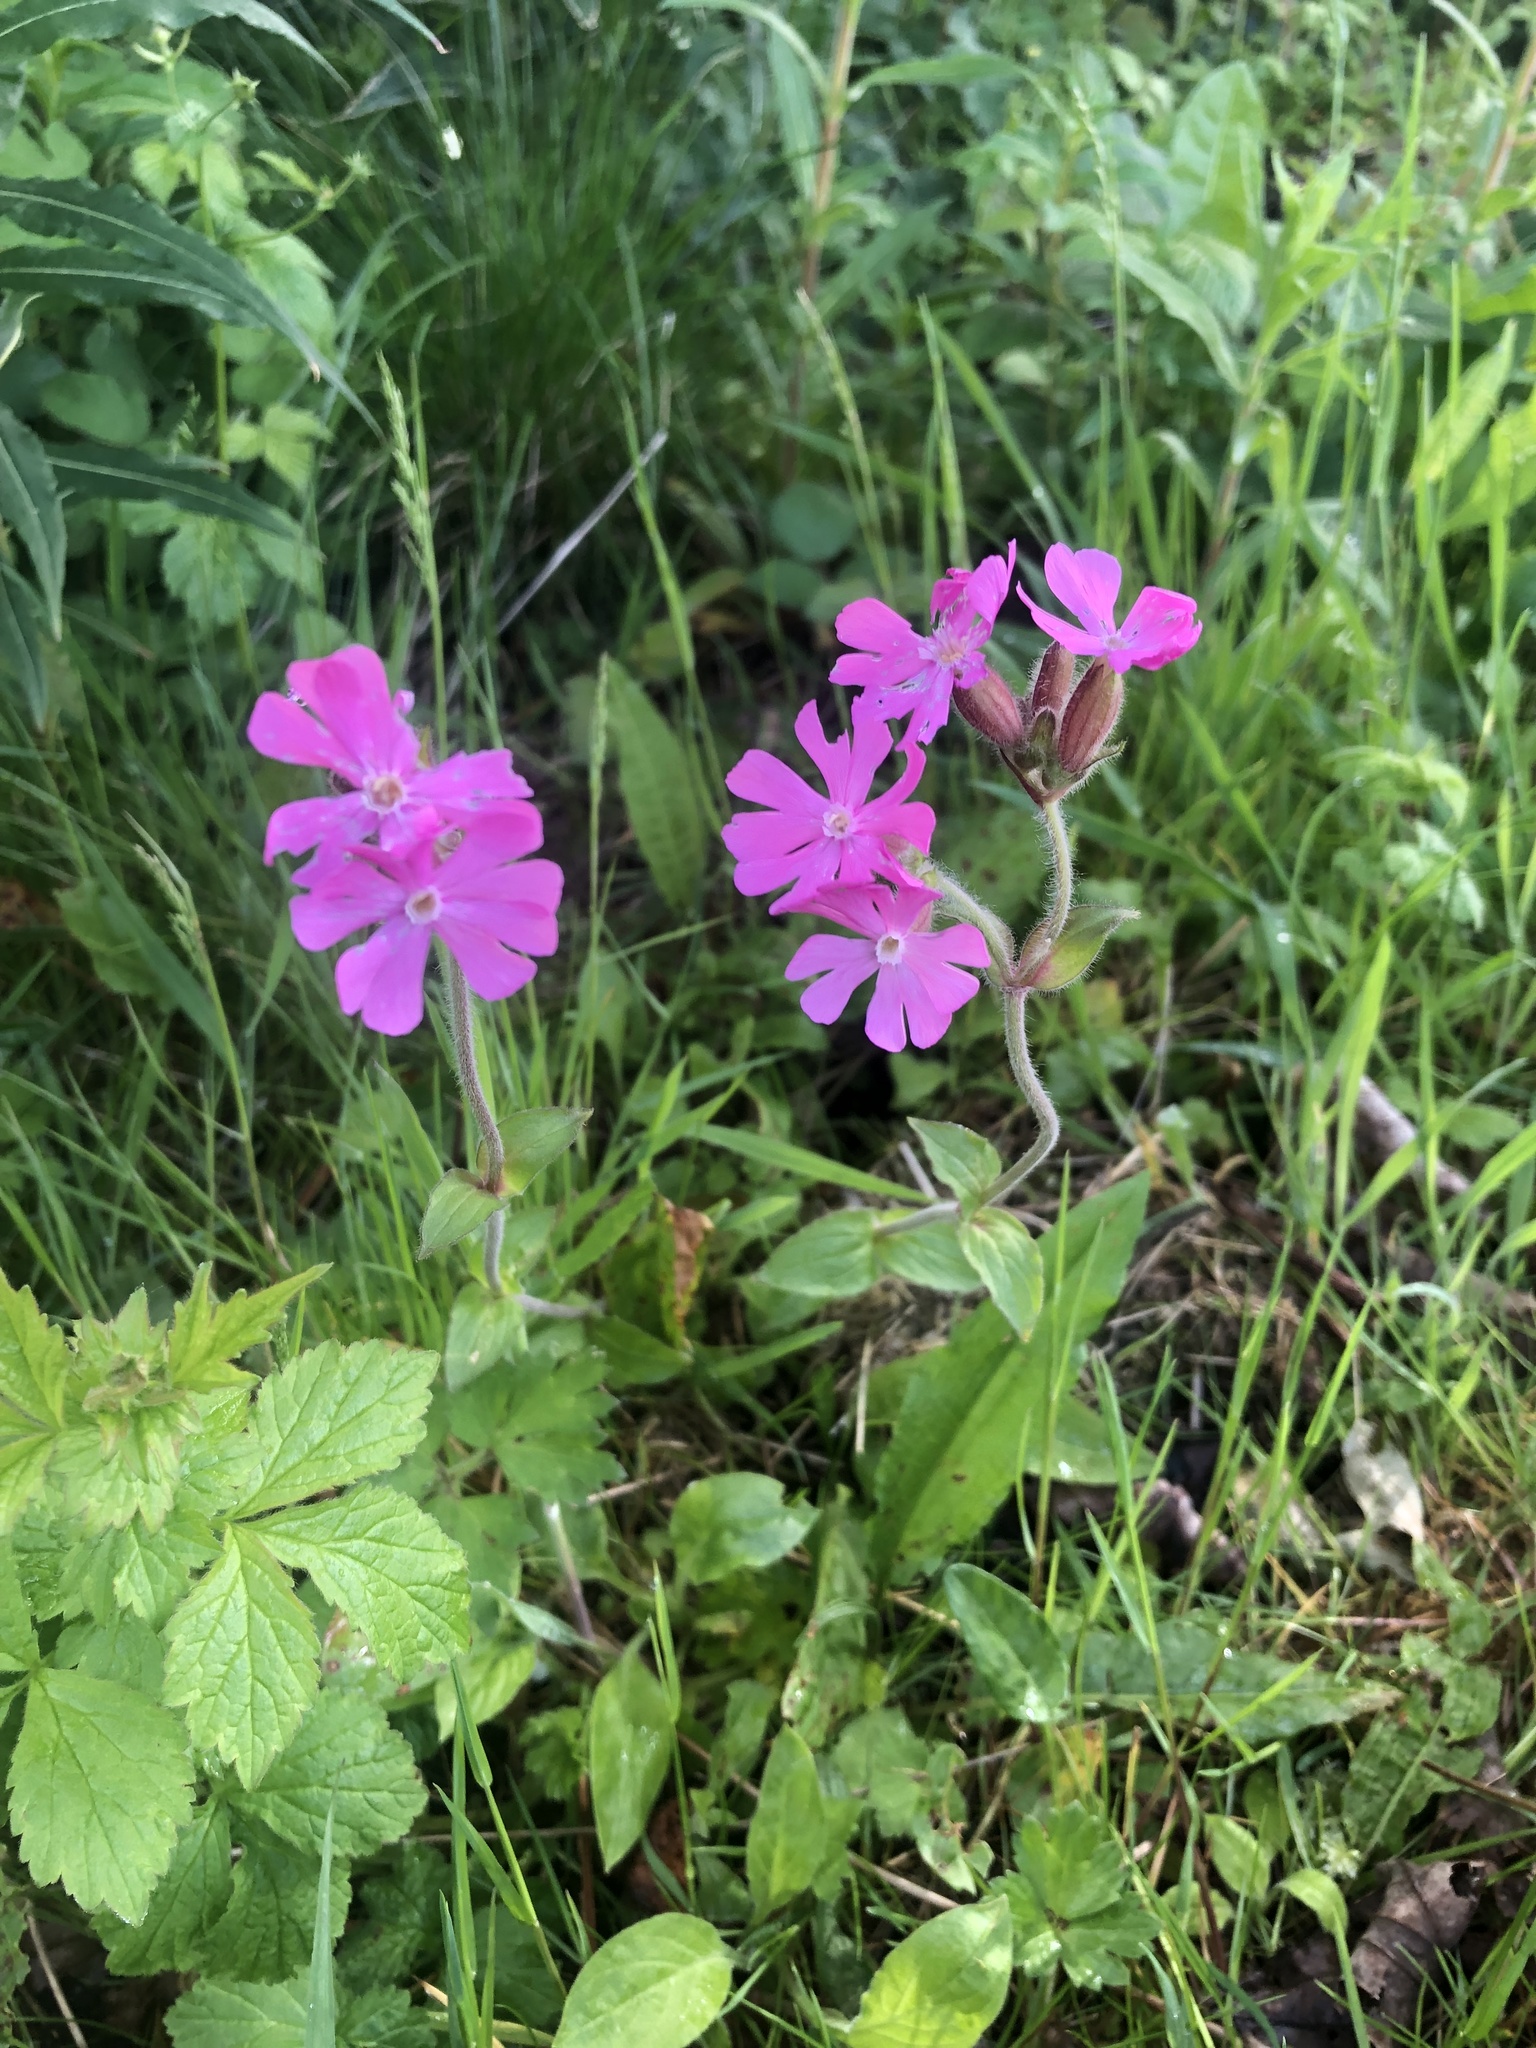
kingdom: Plantae
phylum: Tracheophyta
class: Magnoliopsida
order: Caryophyllales
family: Caryophyllaceae
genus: Silene
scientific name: Silene dioica
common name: Red campion
